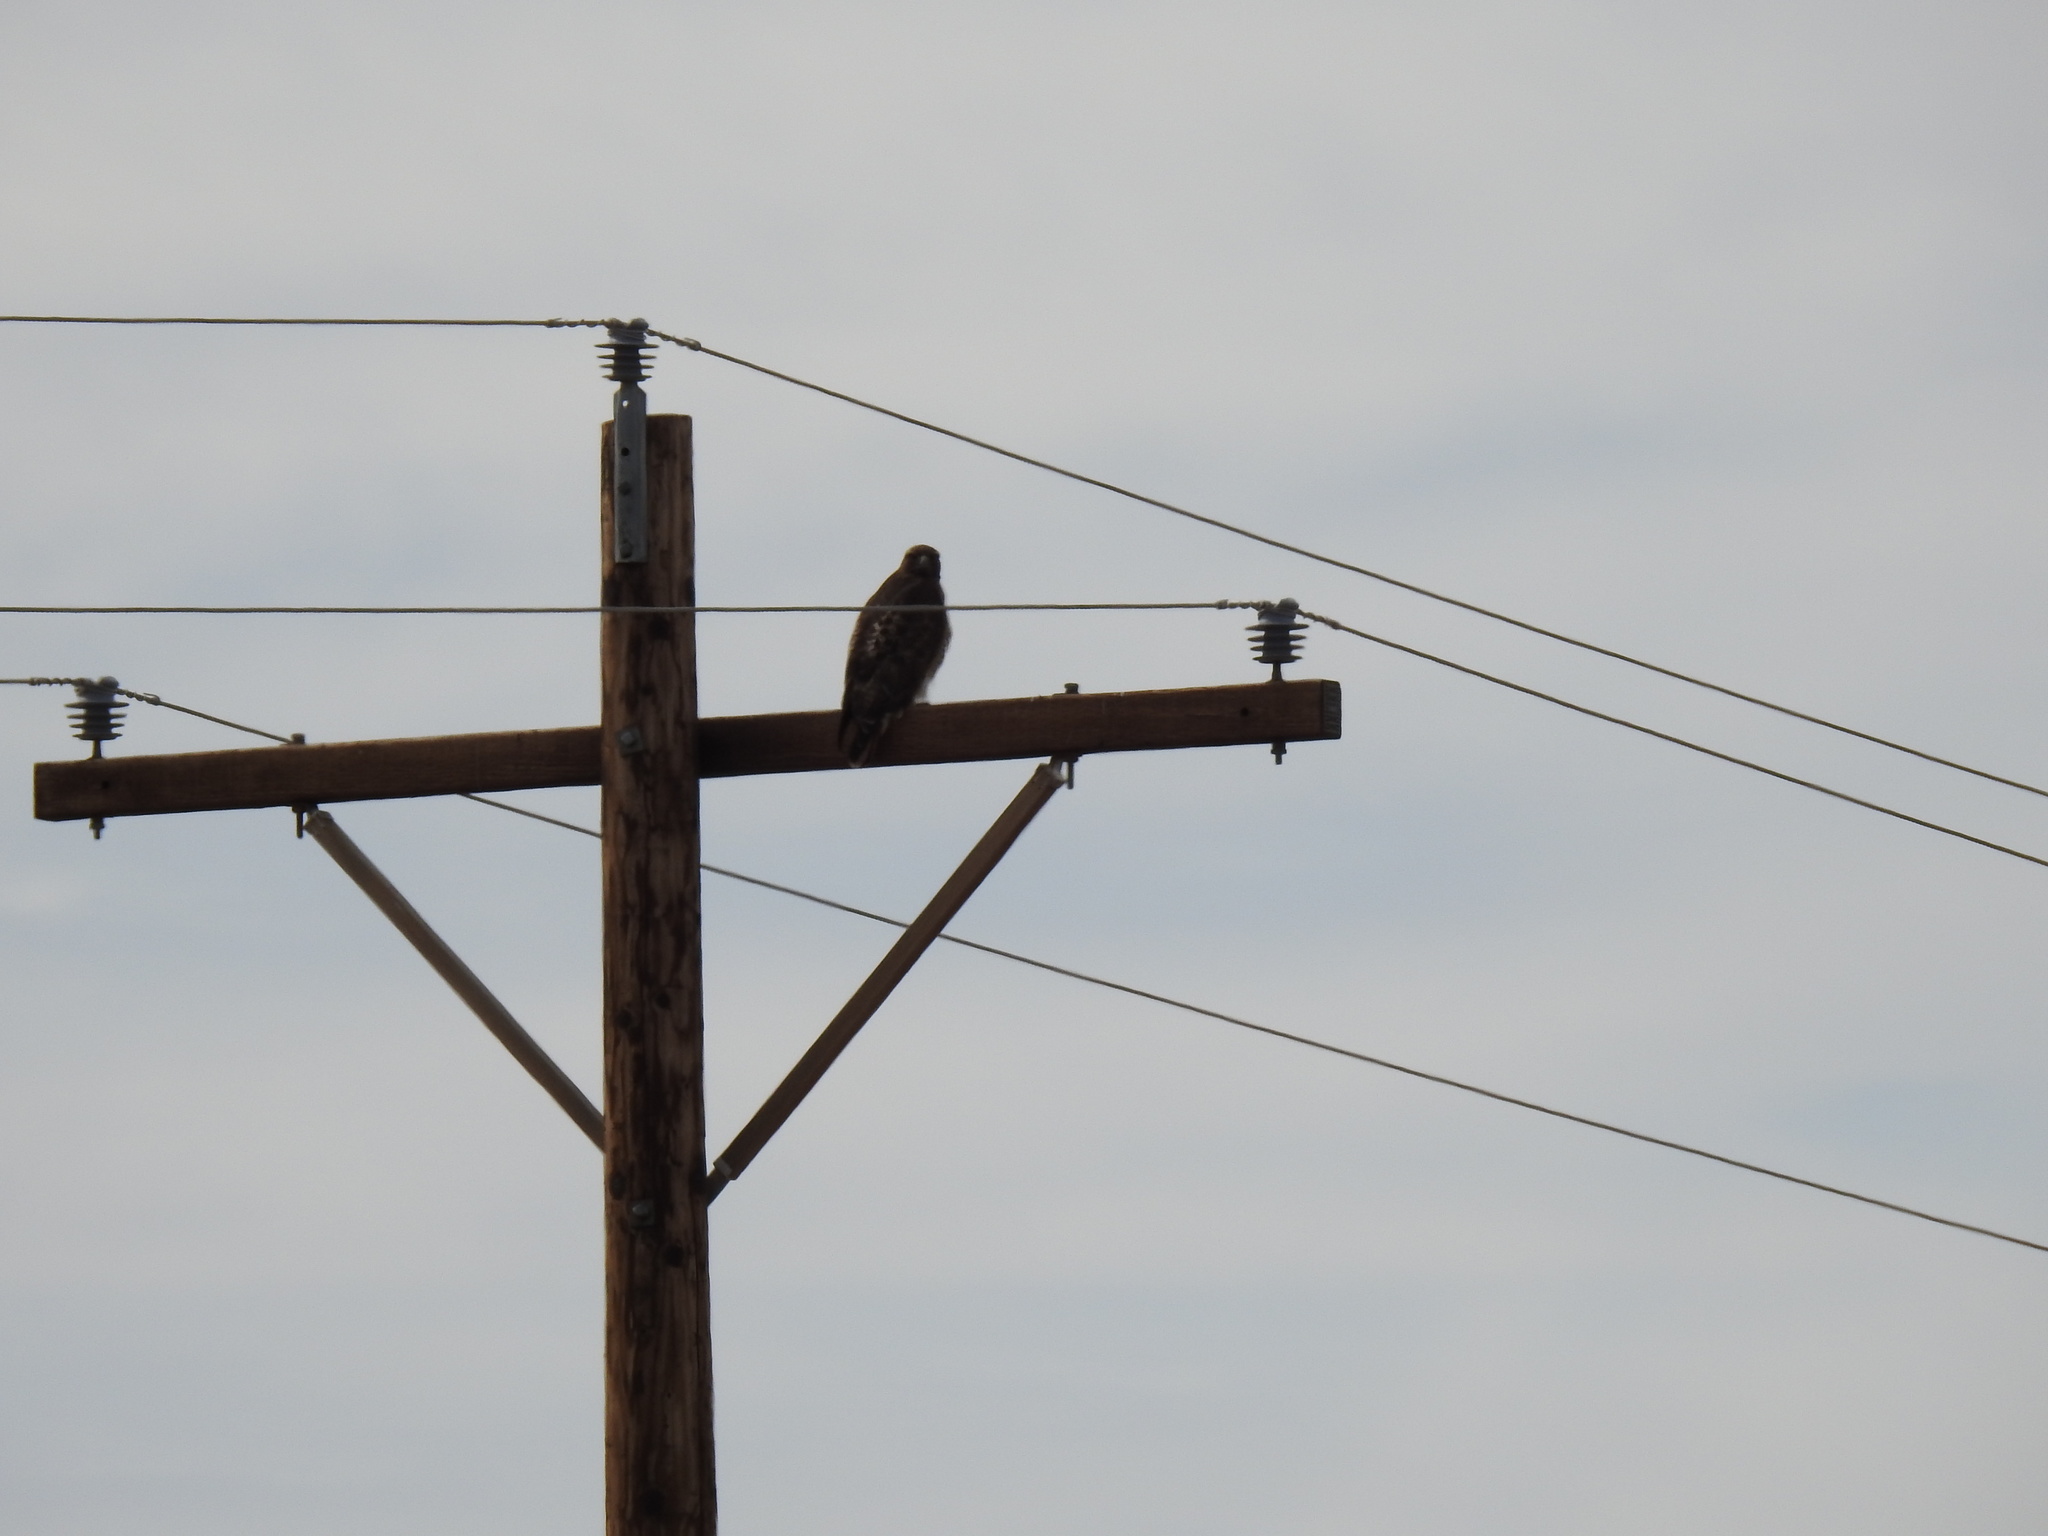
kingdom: Animalia
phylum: Chordata
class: Aves
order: Accipitriformes
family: Accipitridae
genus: Buteo
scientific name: Buteo jamaicensis
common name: Red-tailed hawk
